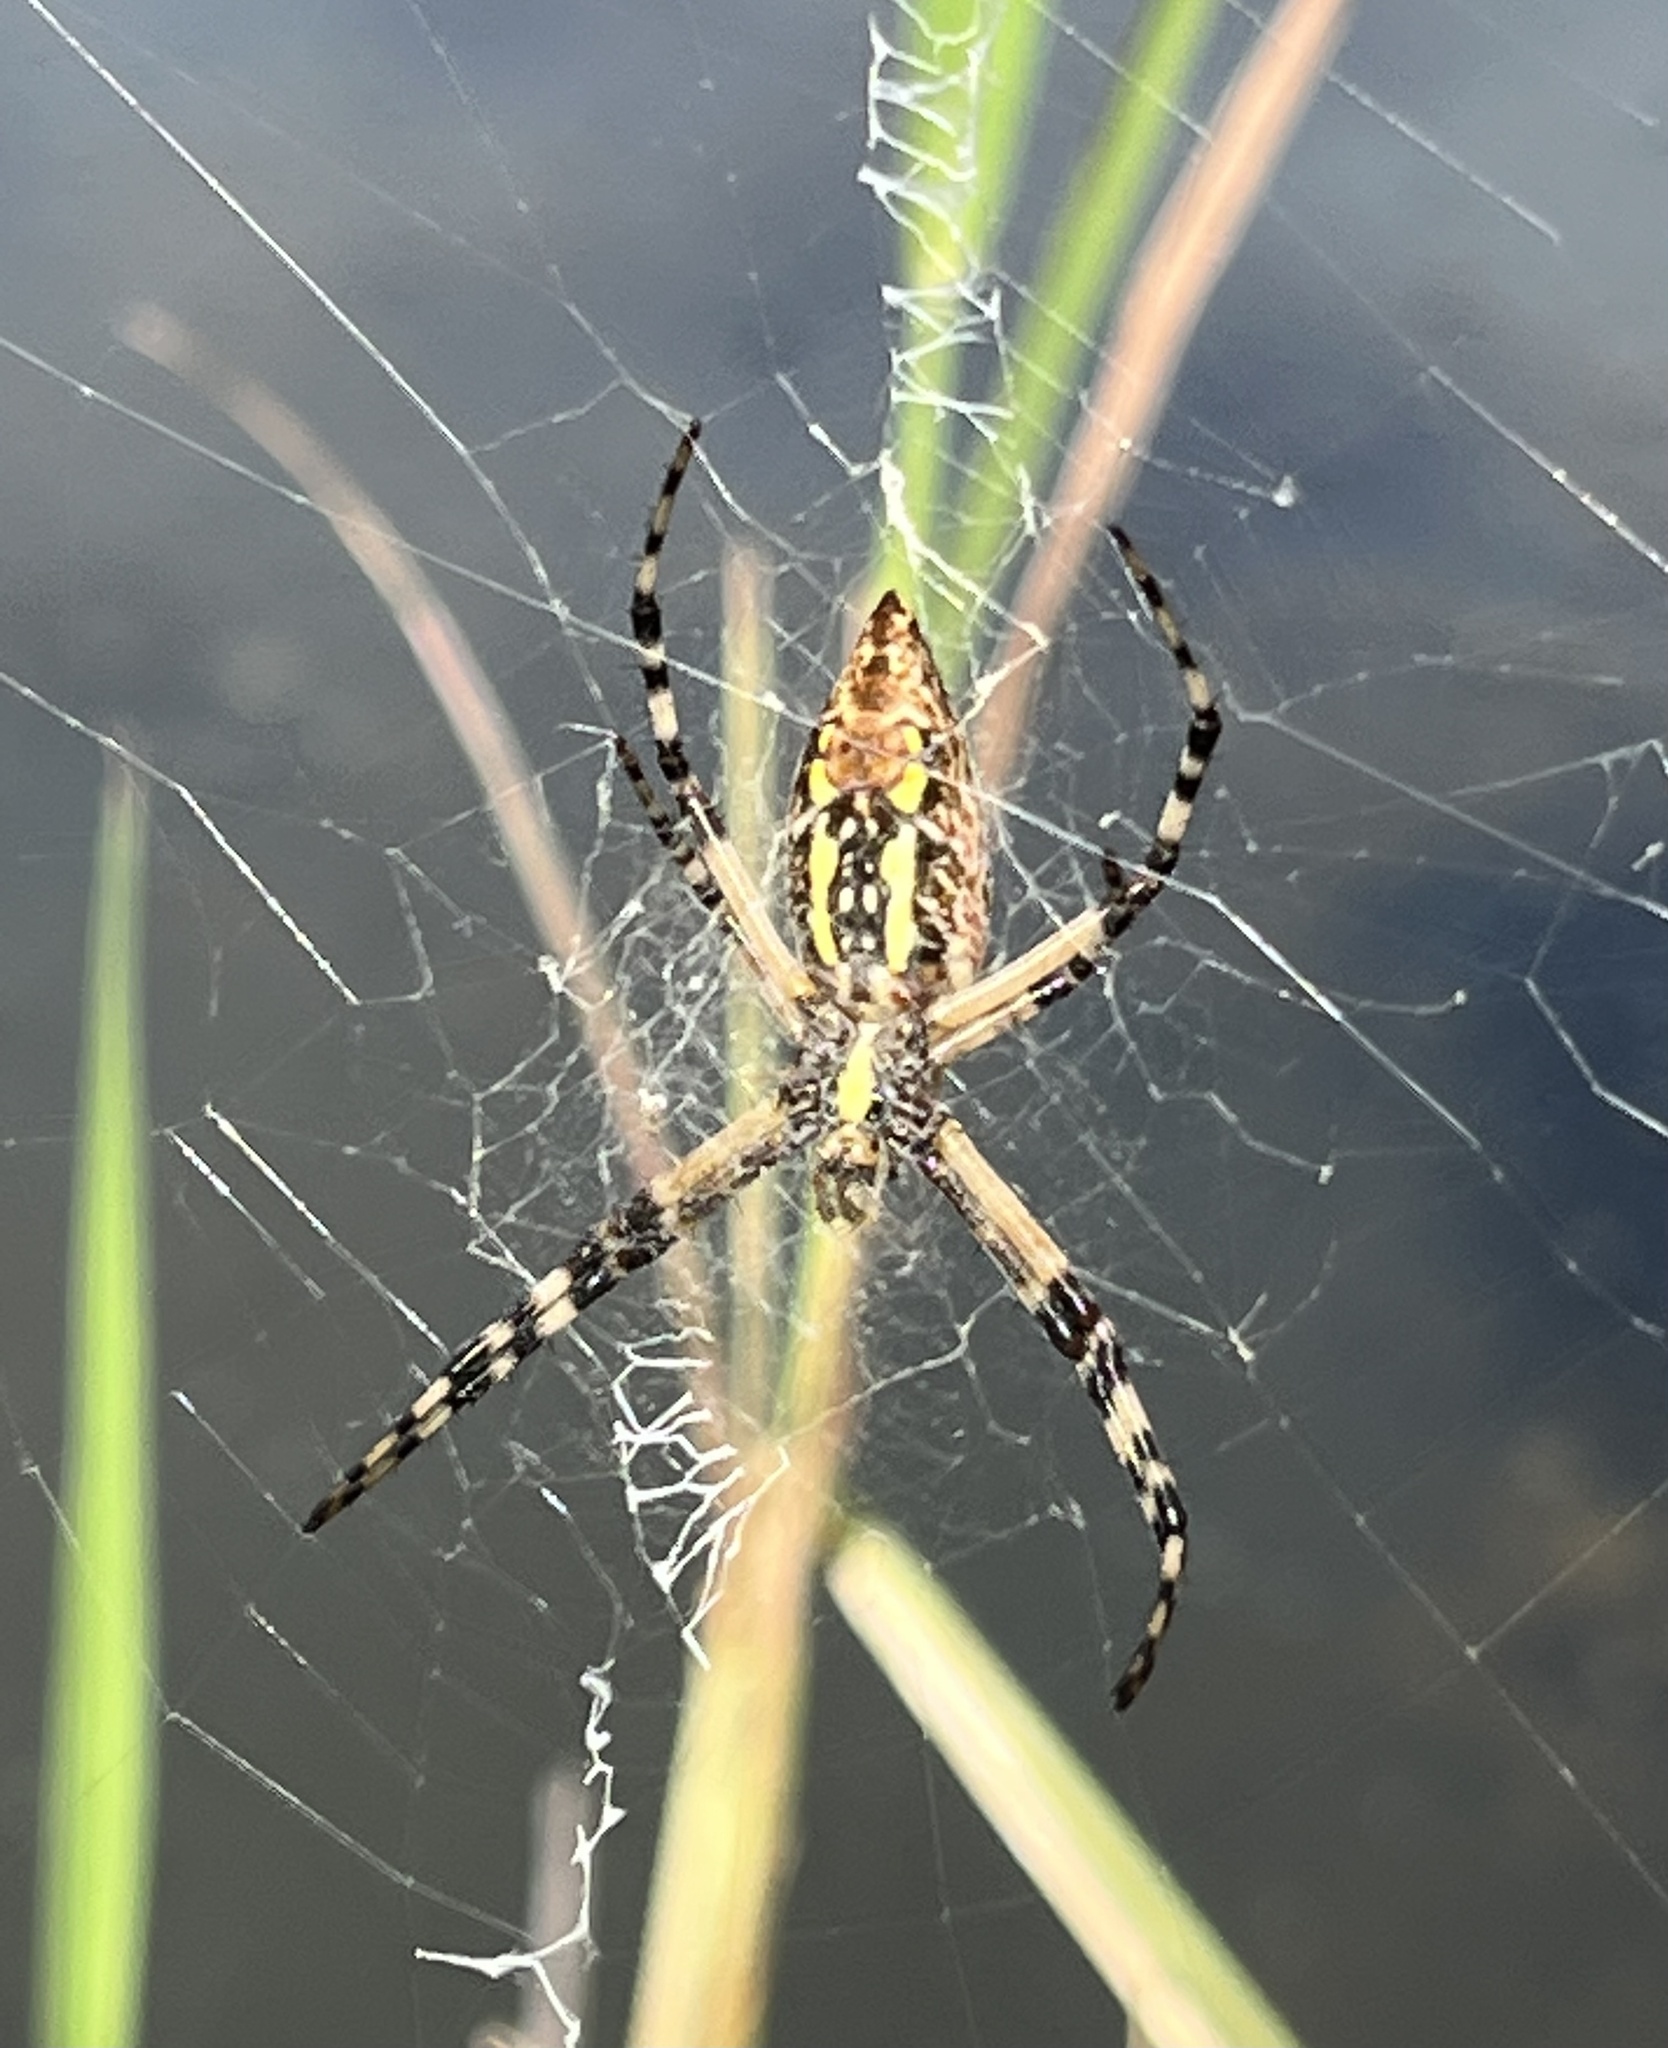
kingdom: Animalia
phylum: Arthropoda
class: Arachnida
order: Araneae
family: Araneidae
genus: Argiope
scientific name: Argiope aurantia
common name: Orb weavers
